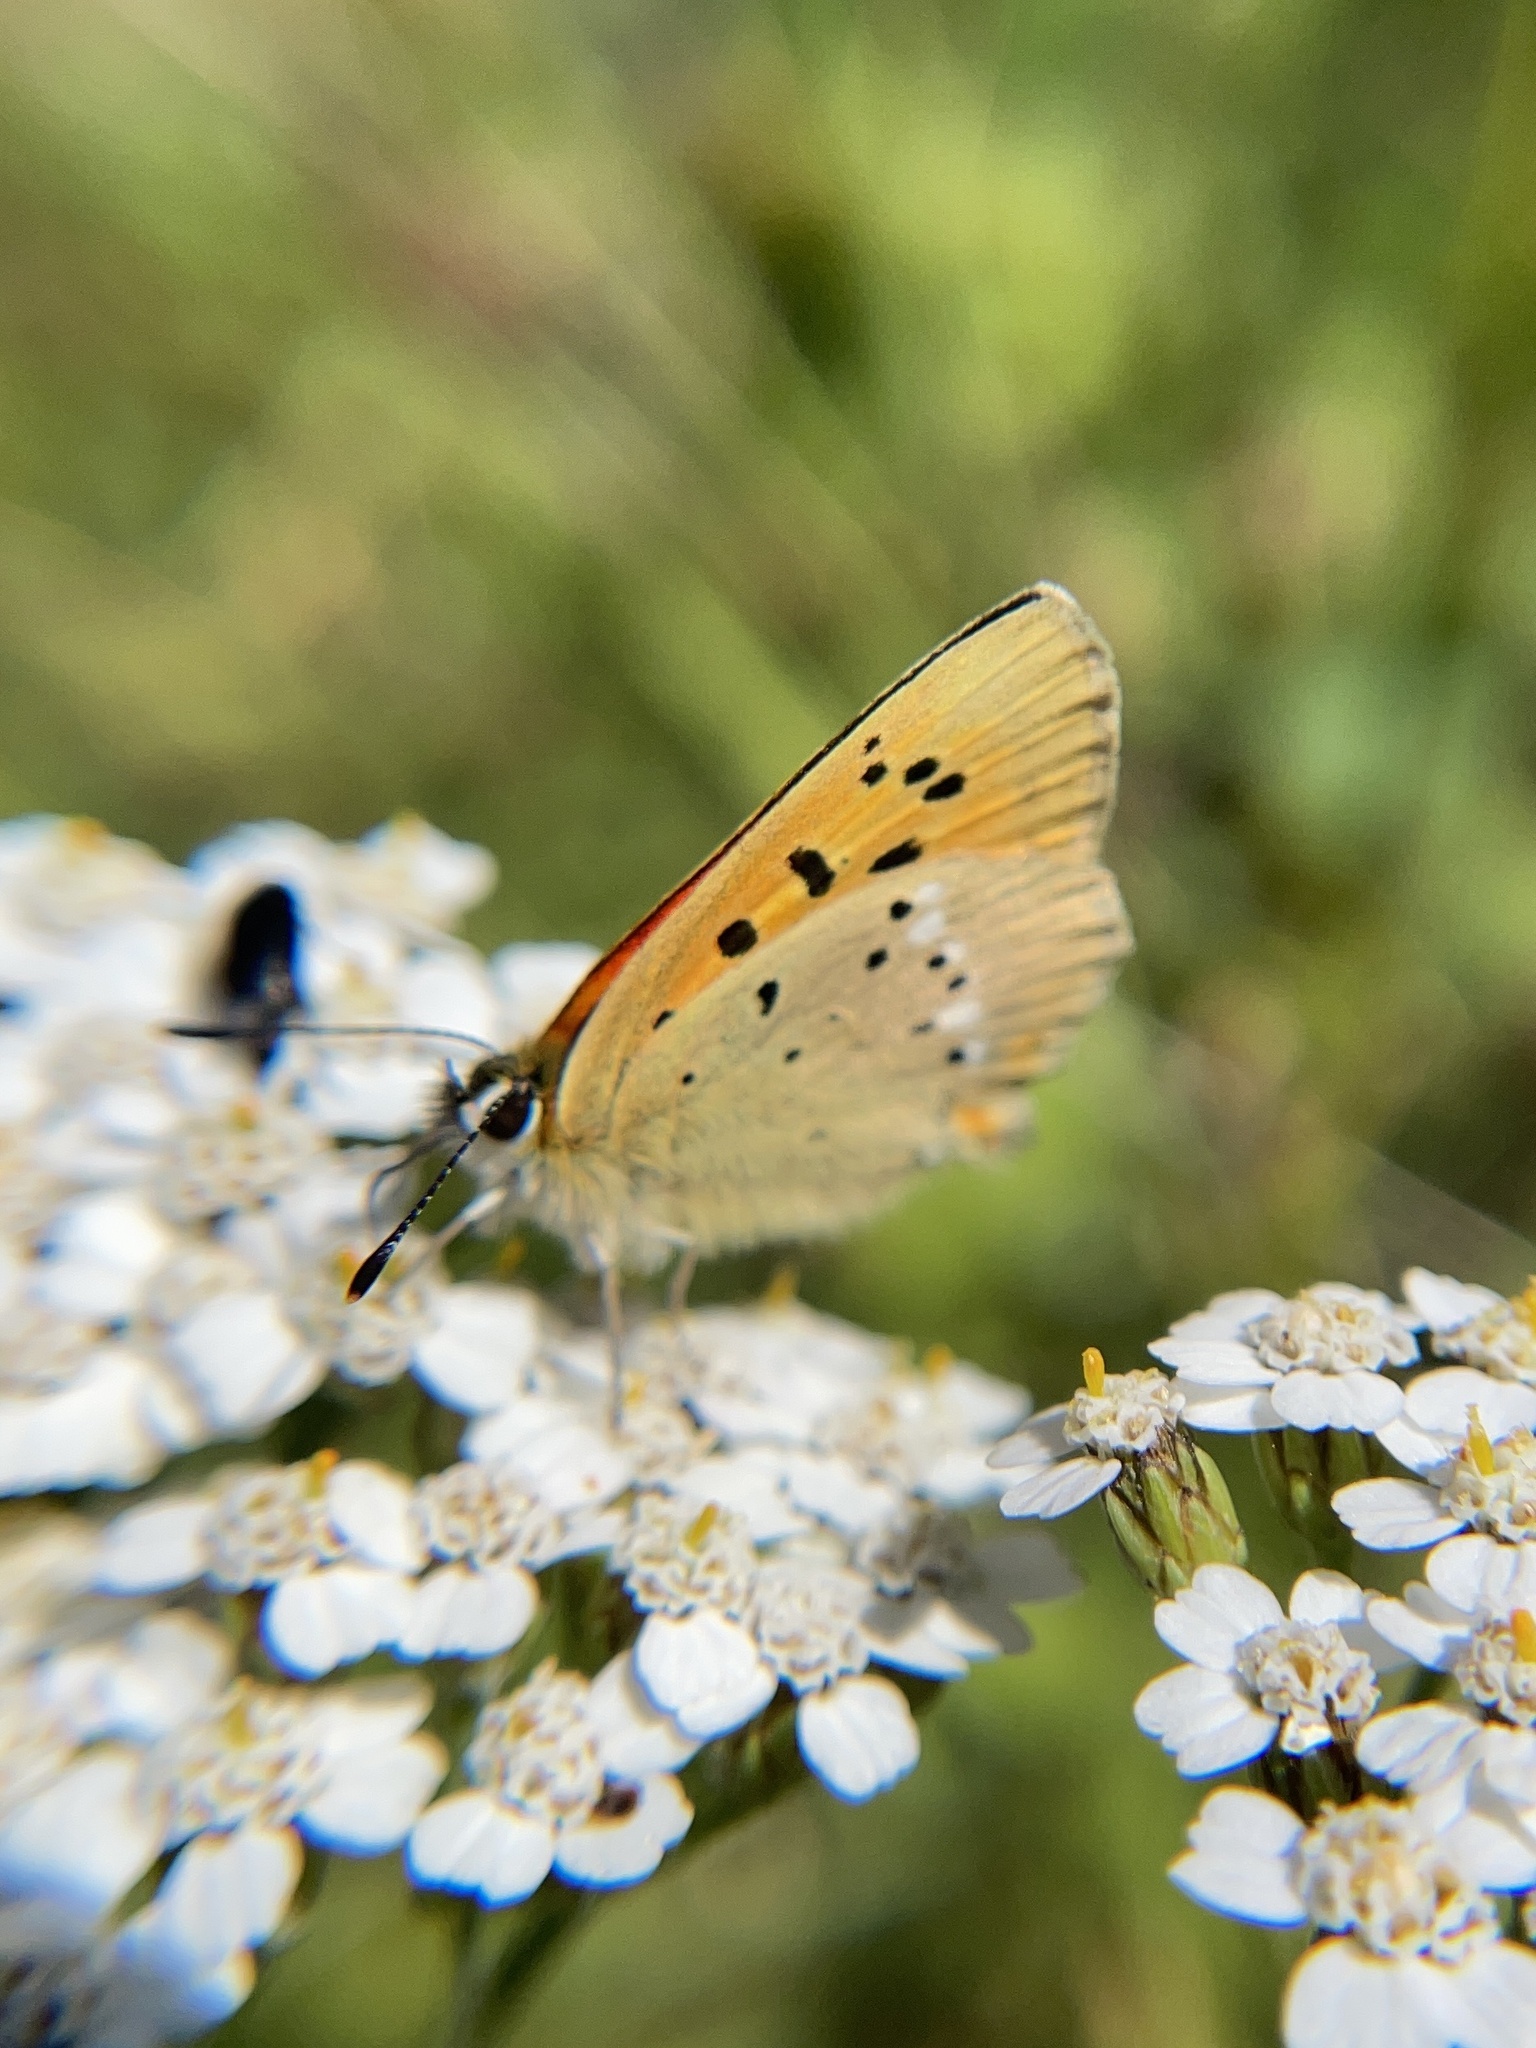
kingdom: Animalia
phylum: Arthropoda
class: Insecta
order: Lepidoptera
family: Lycaenidae
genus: Lycaena
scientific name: Lycaena virgaureae
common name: Scarce copper
